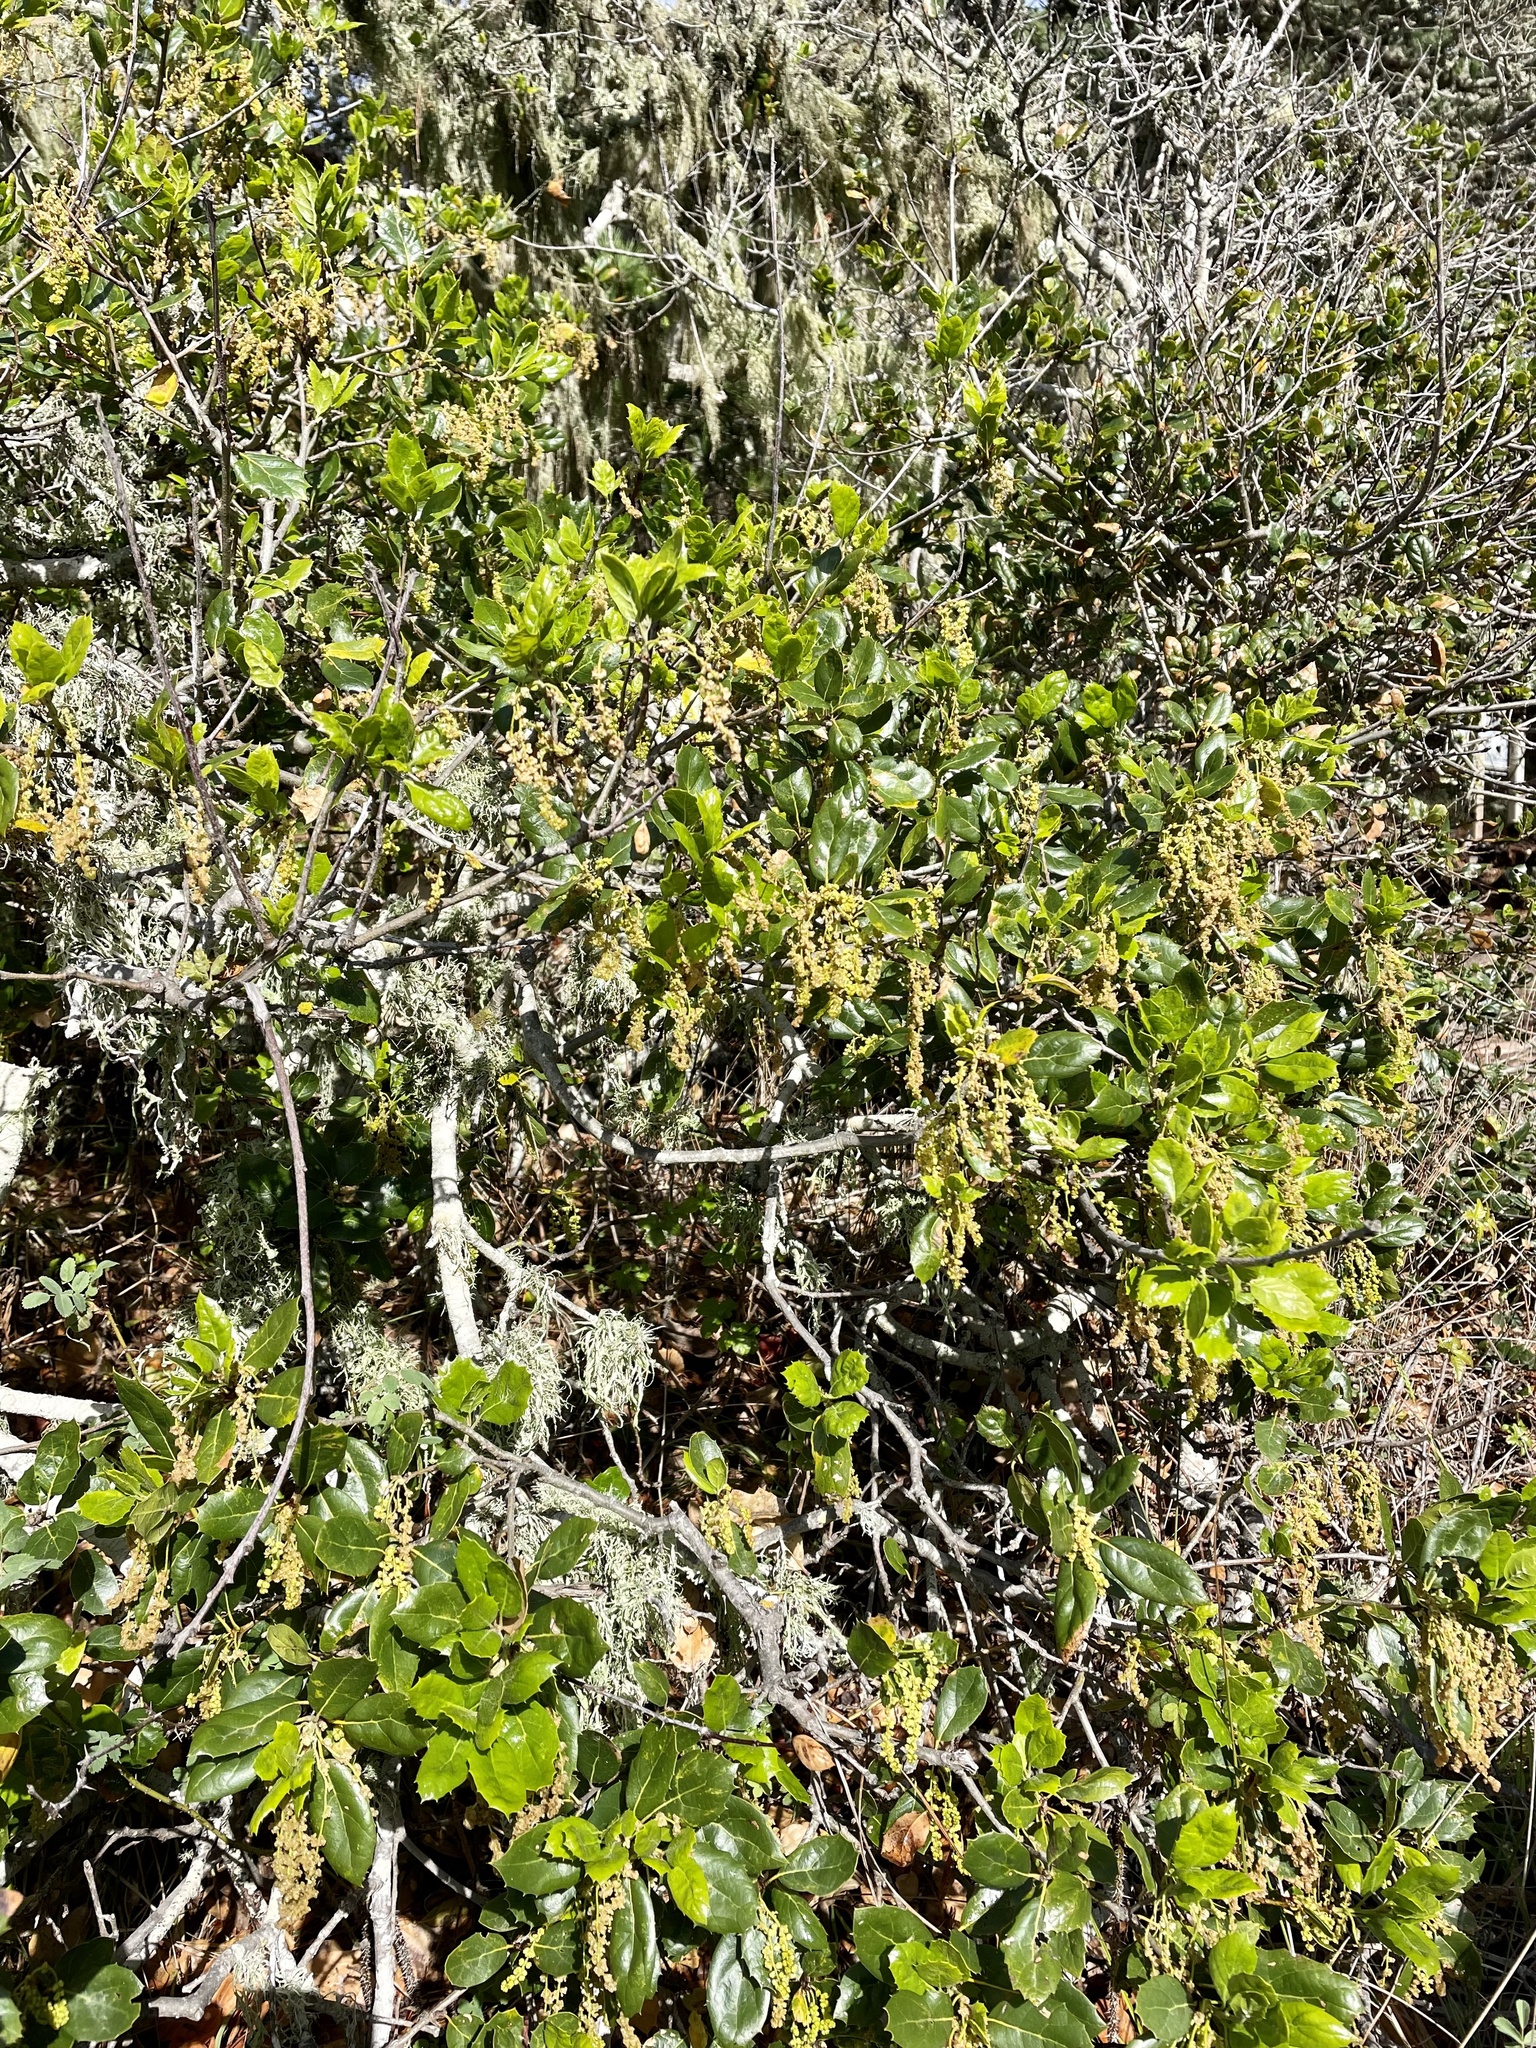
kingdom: Plantae
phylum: Tracheophyta
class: Magnoliopsida
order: Fagales
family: Fagaceae
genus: Quercus
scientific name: Quercus agrifolia
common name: California live oak
